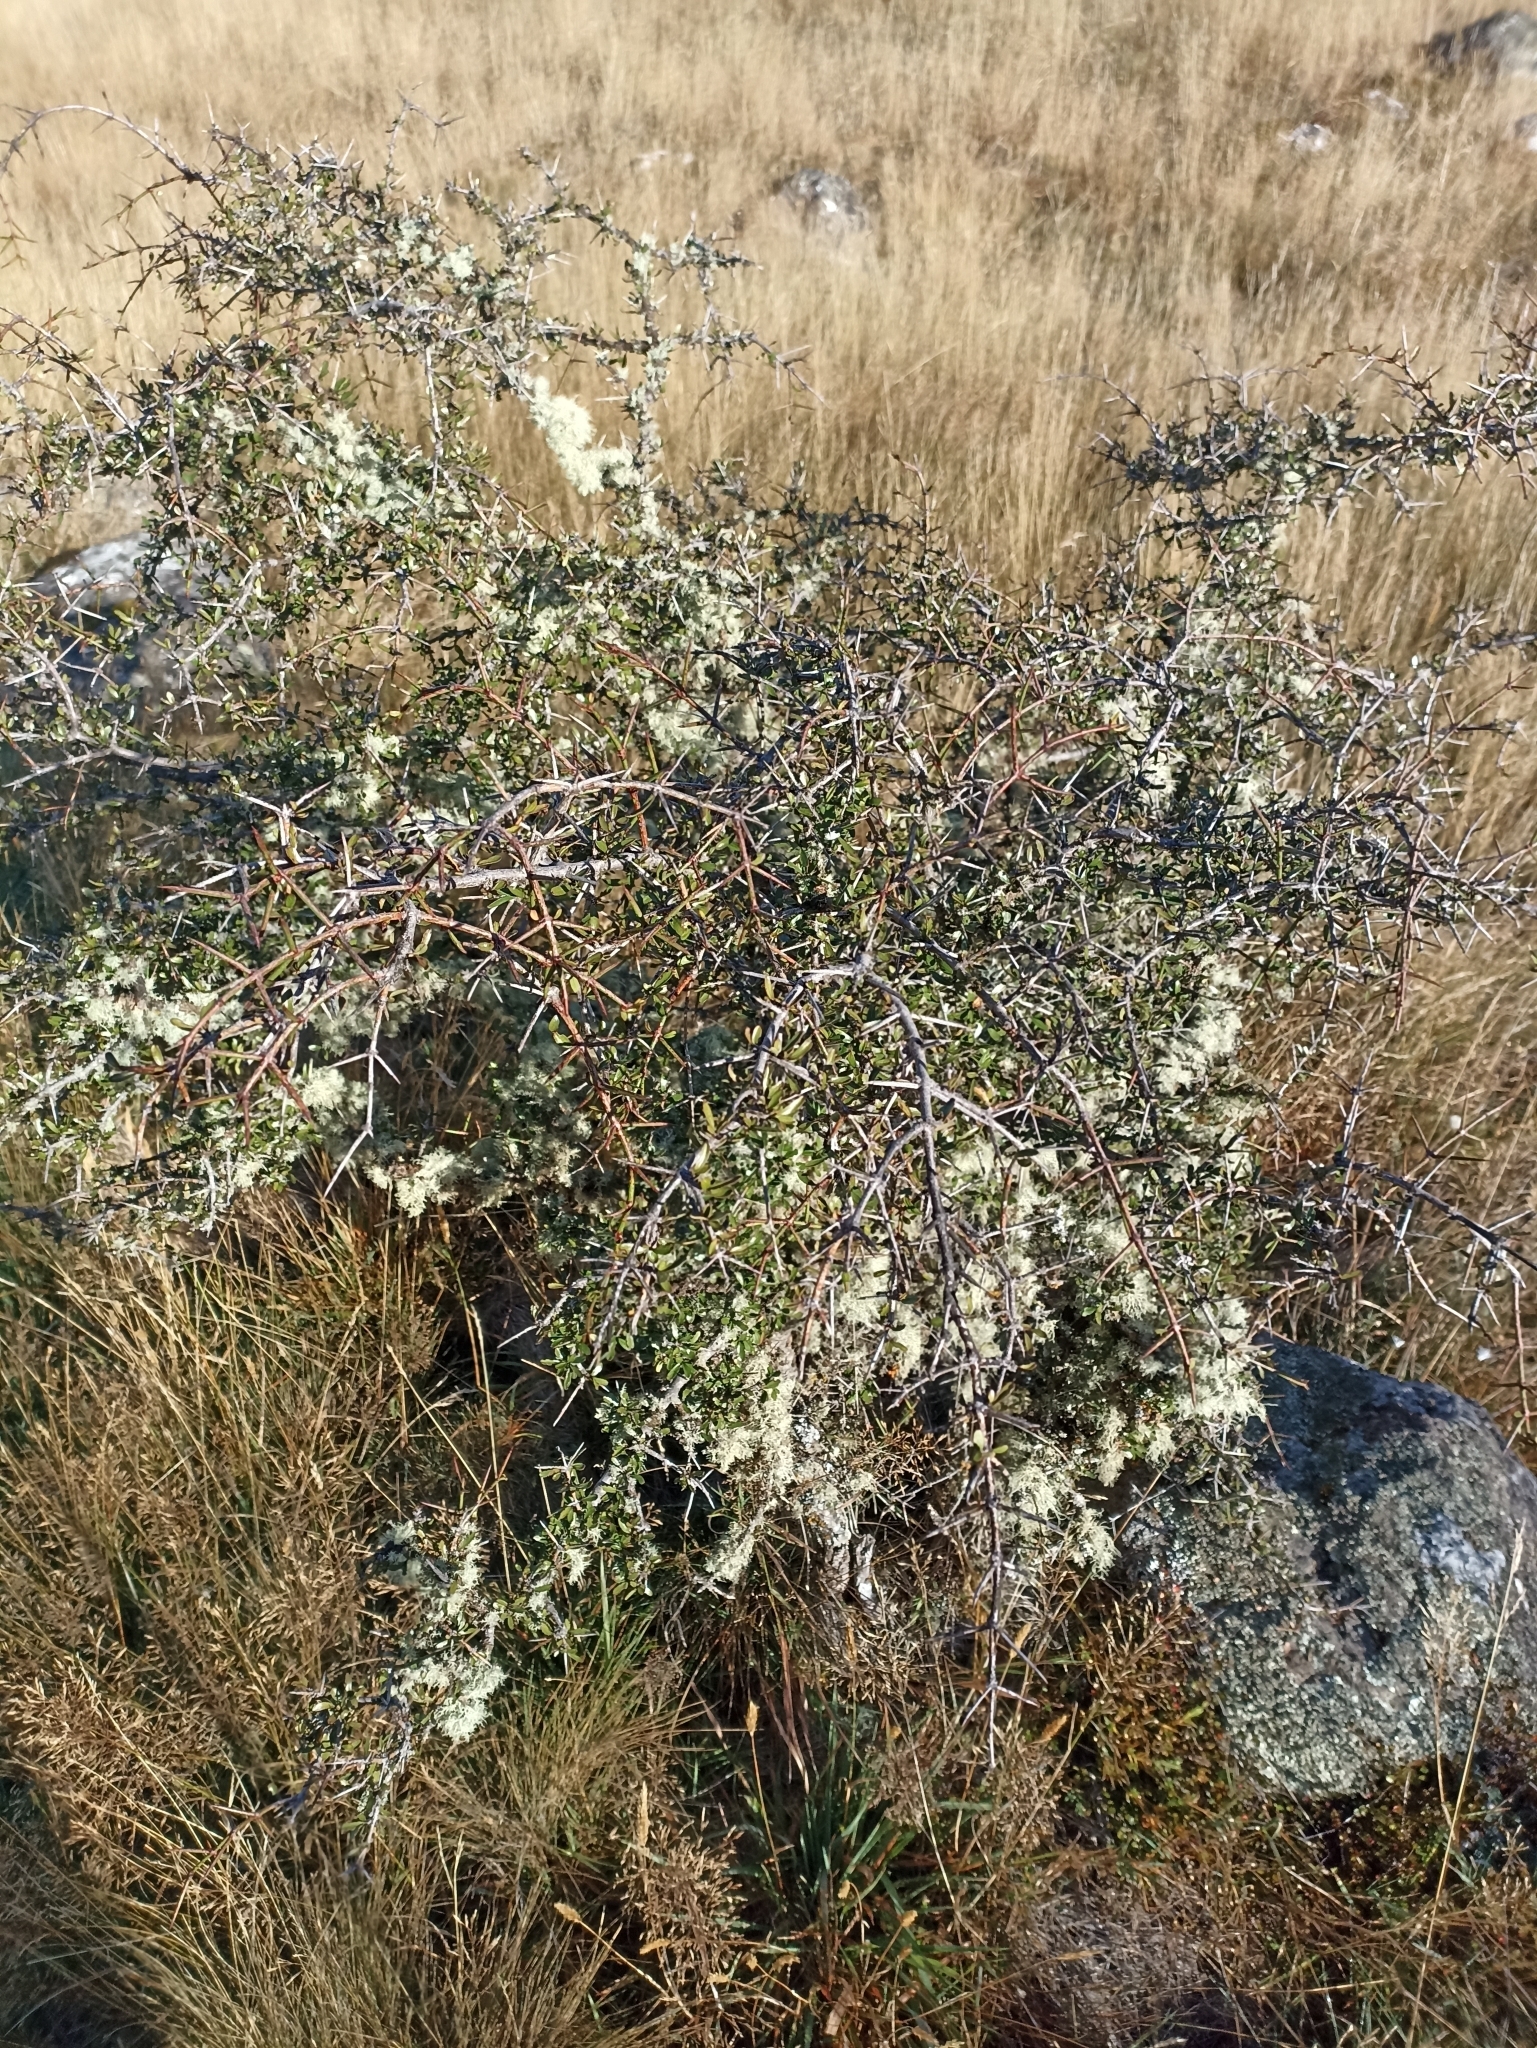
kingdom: Plantae
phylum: Tracheophyta
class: Magnoliopsida
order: Rosales
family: Rhamnaceae
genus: Discaria
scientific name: Discaria toumatou
